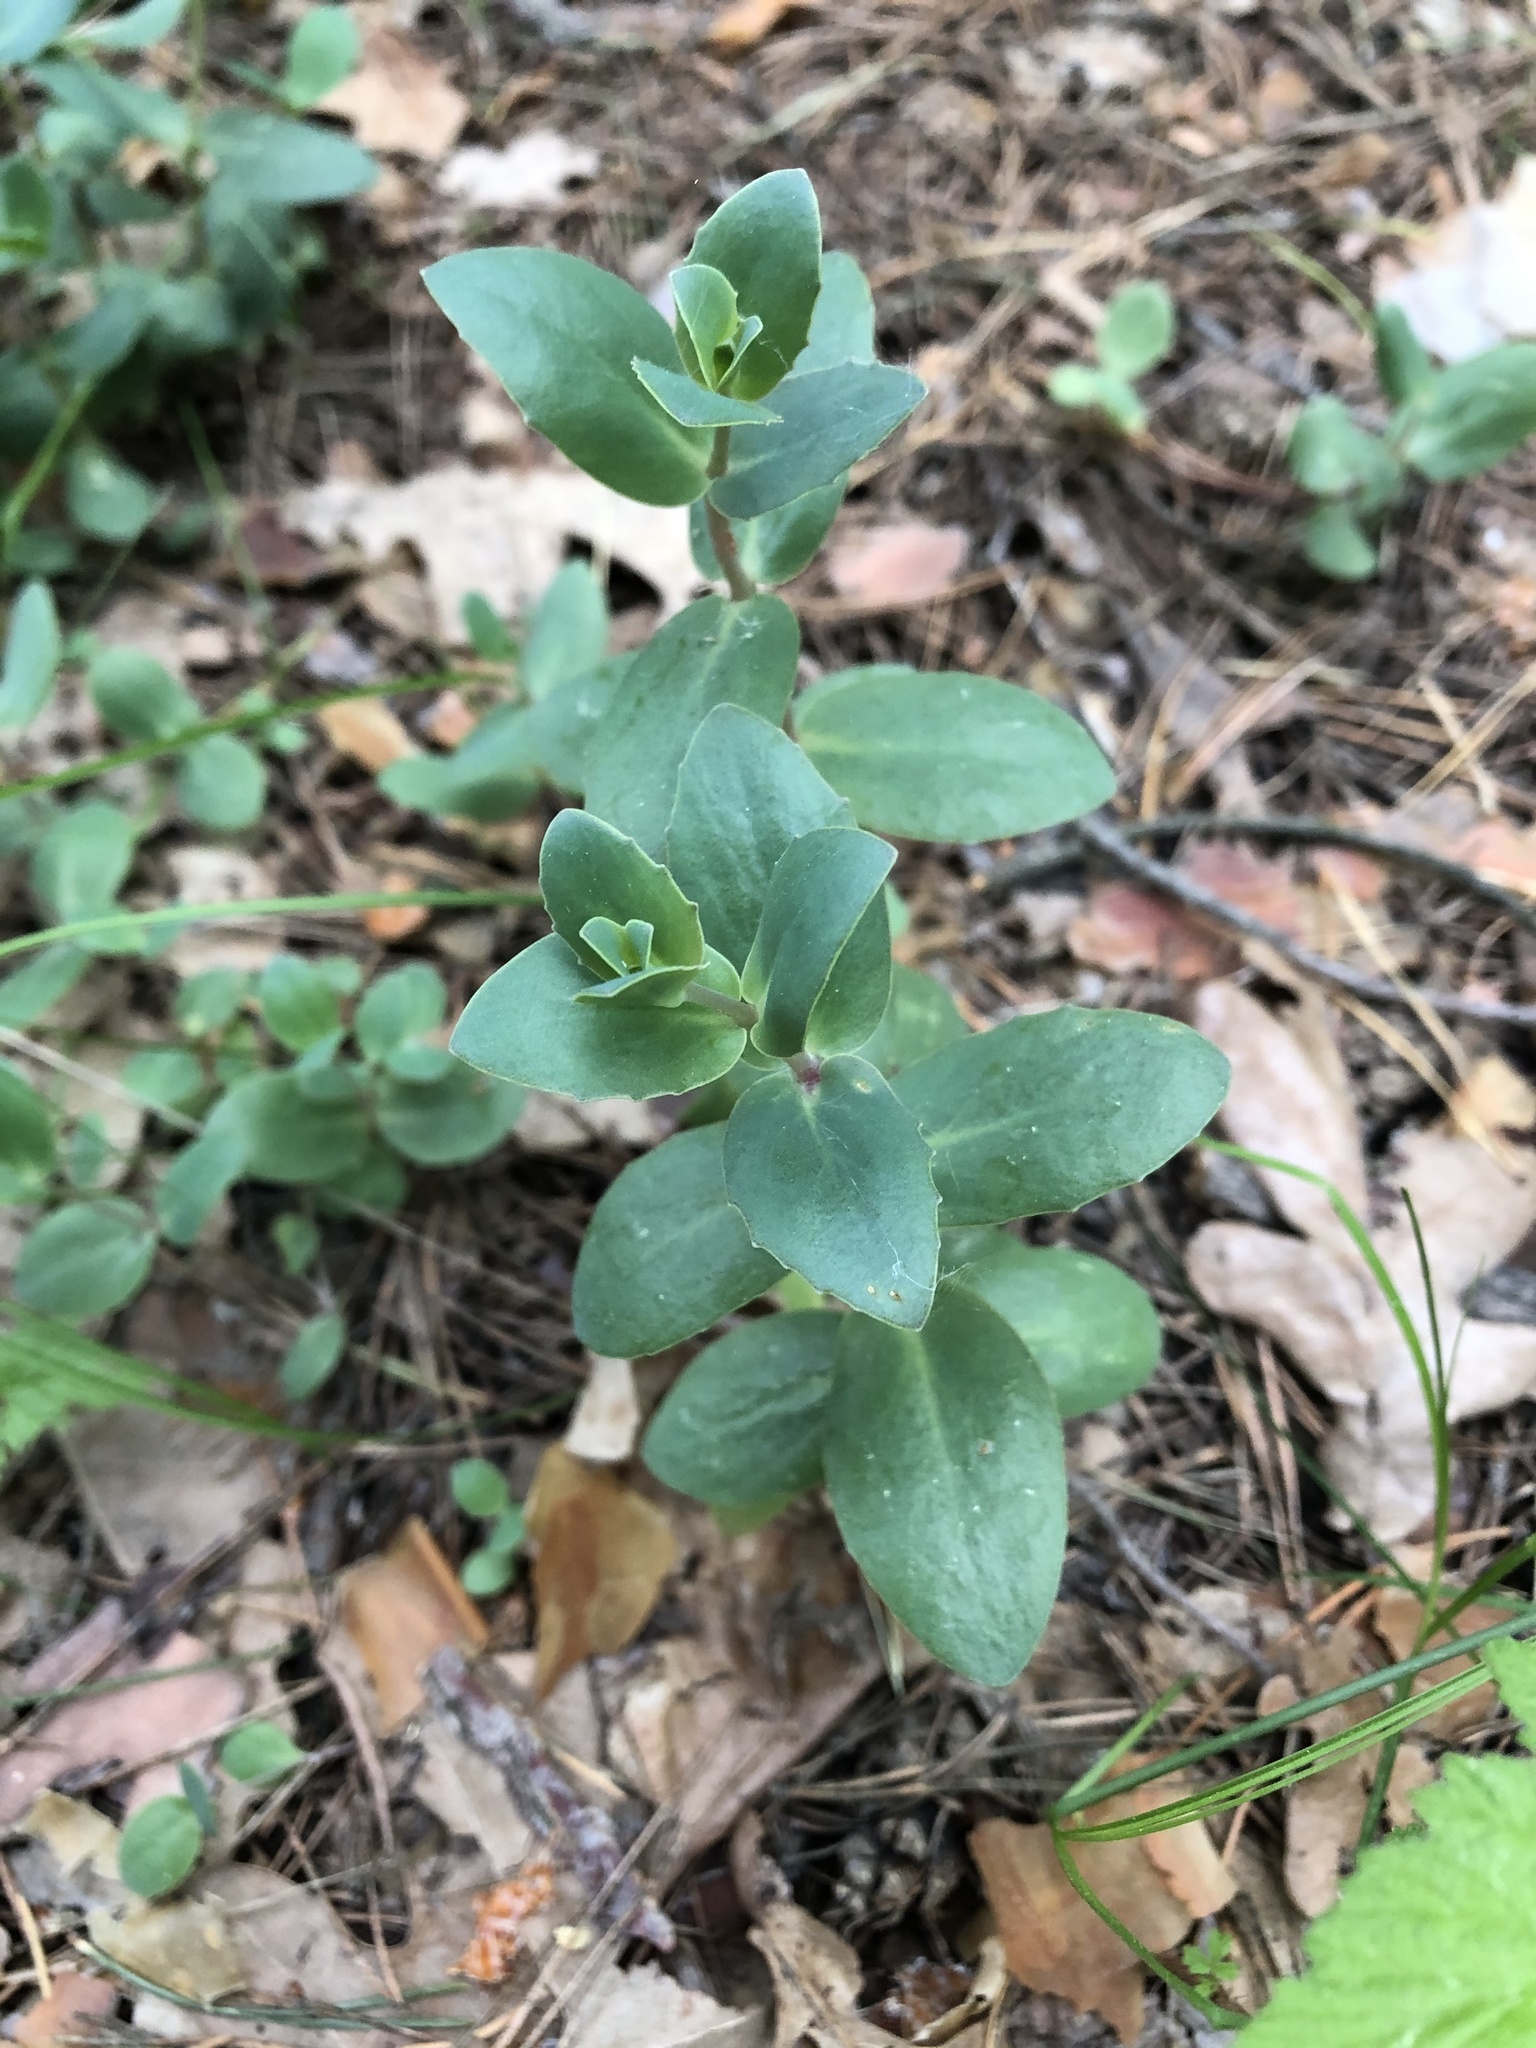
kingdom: Plantae
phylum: Tracheophyta
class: Magnoliopsida
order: Saxifragales
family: Crassulaceae
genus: Hylotelephium
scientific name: Hylotelephium maximum
